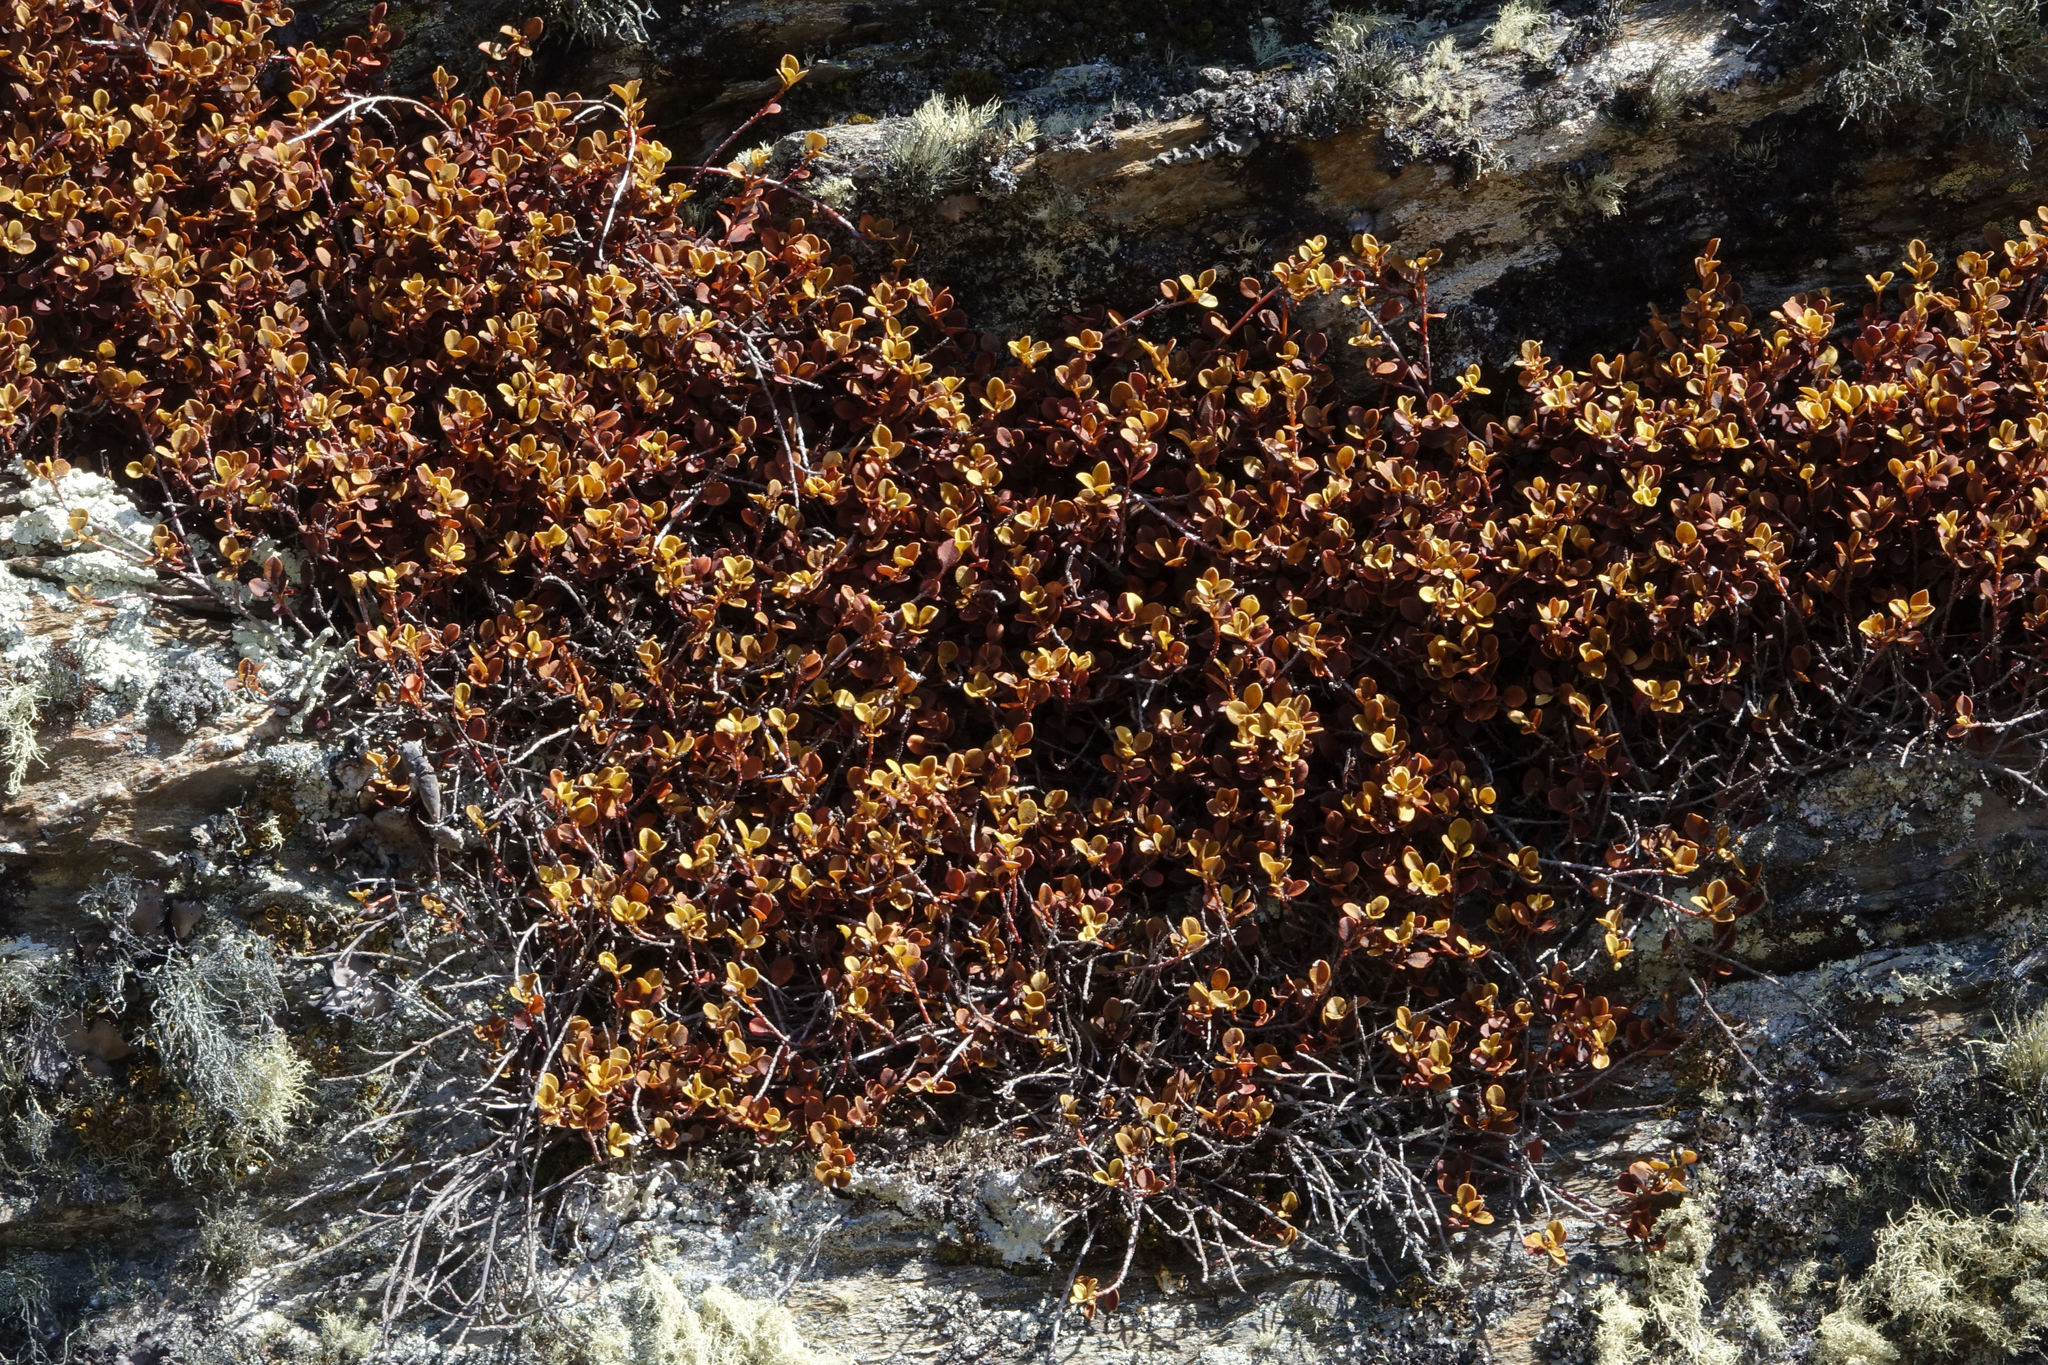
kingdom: Plantae
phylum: Tracheophyta
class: Magnoliopsida
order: Ericales
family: Primulaceae
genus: Myrsine
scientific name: Myrsine nummularia
